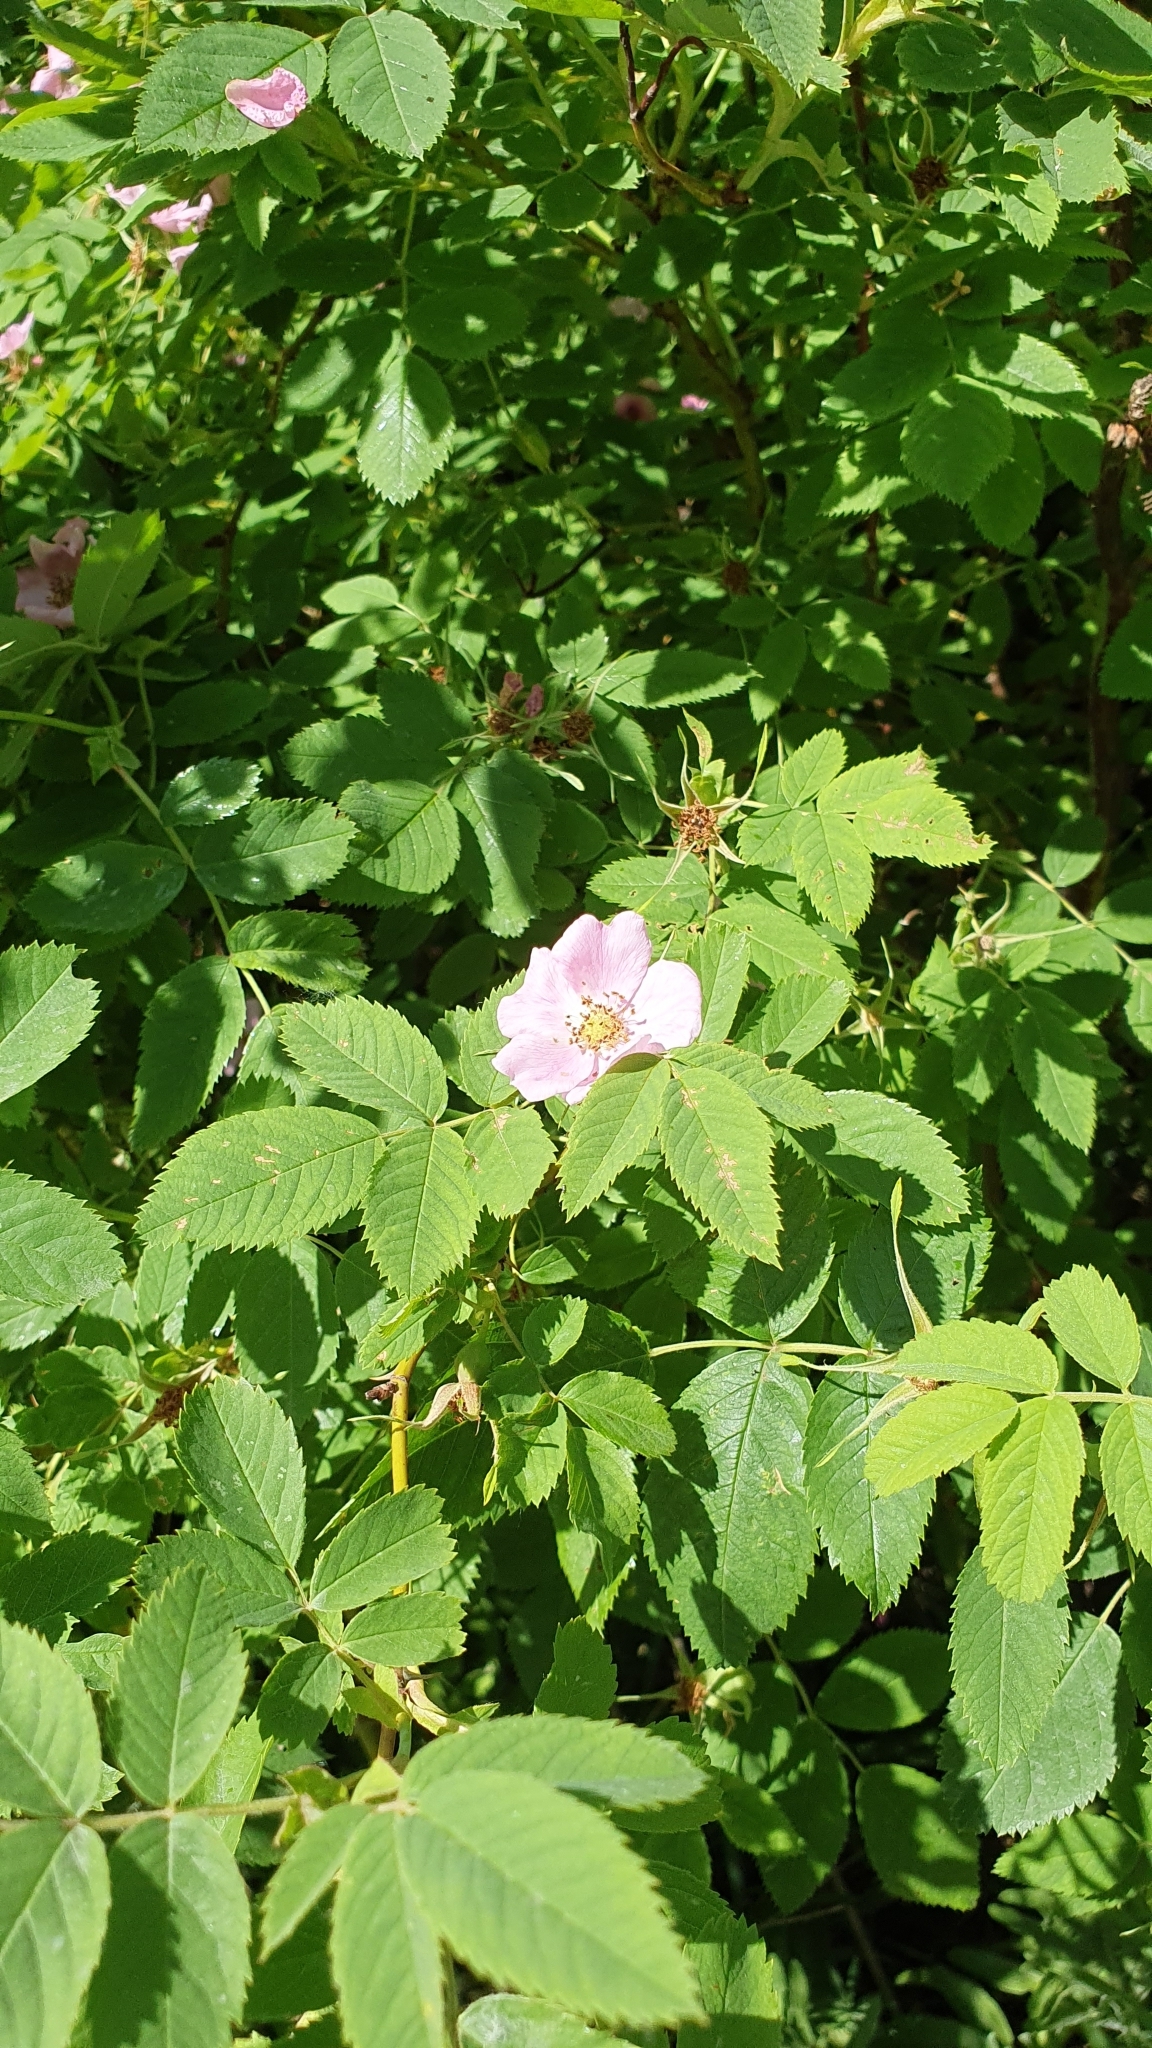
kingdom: Plantae
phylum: Tracheophyta
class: Magnoliopsida
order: Rosales
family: Rosaceae
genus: Rosa
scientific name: Rosa glabrifolia
